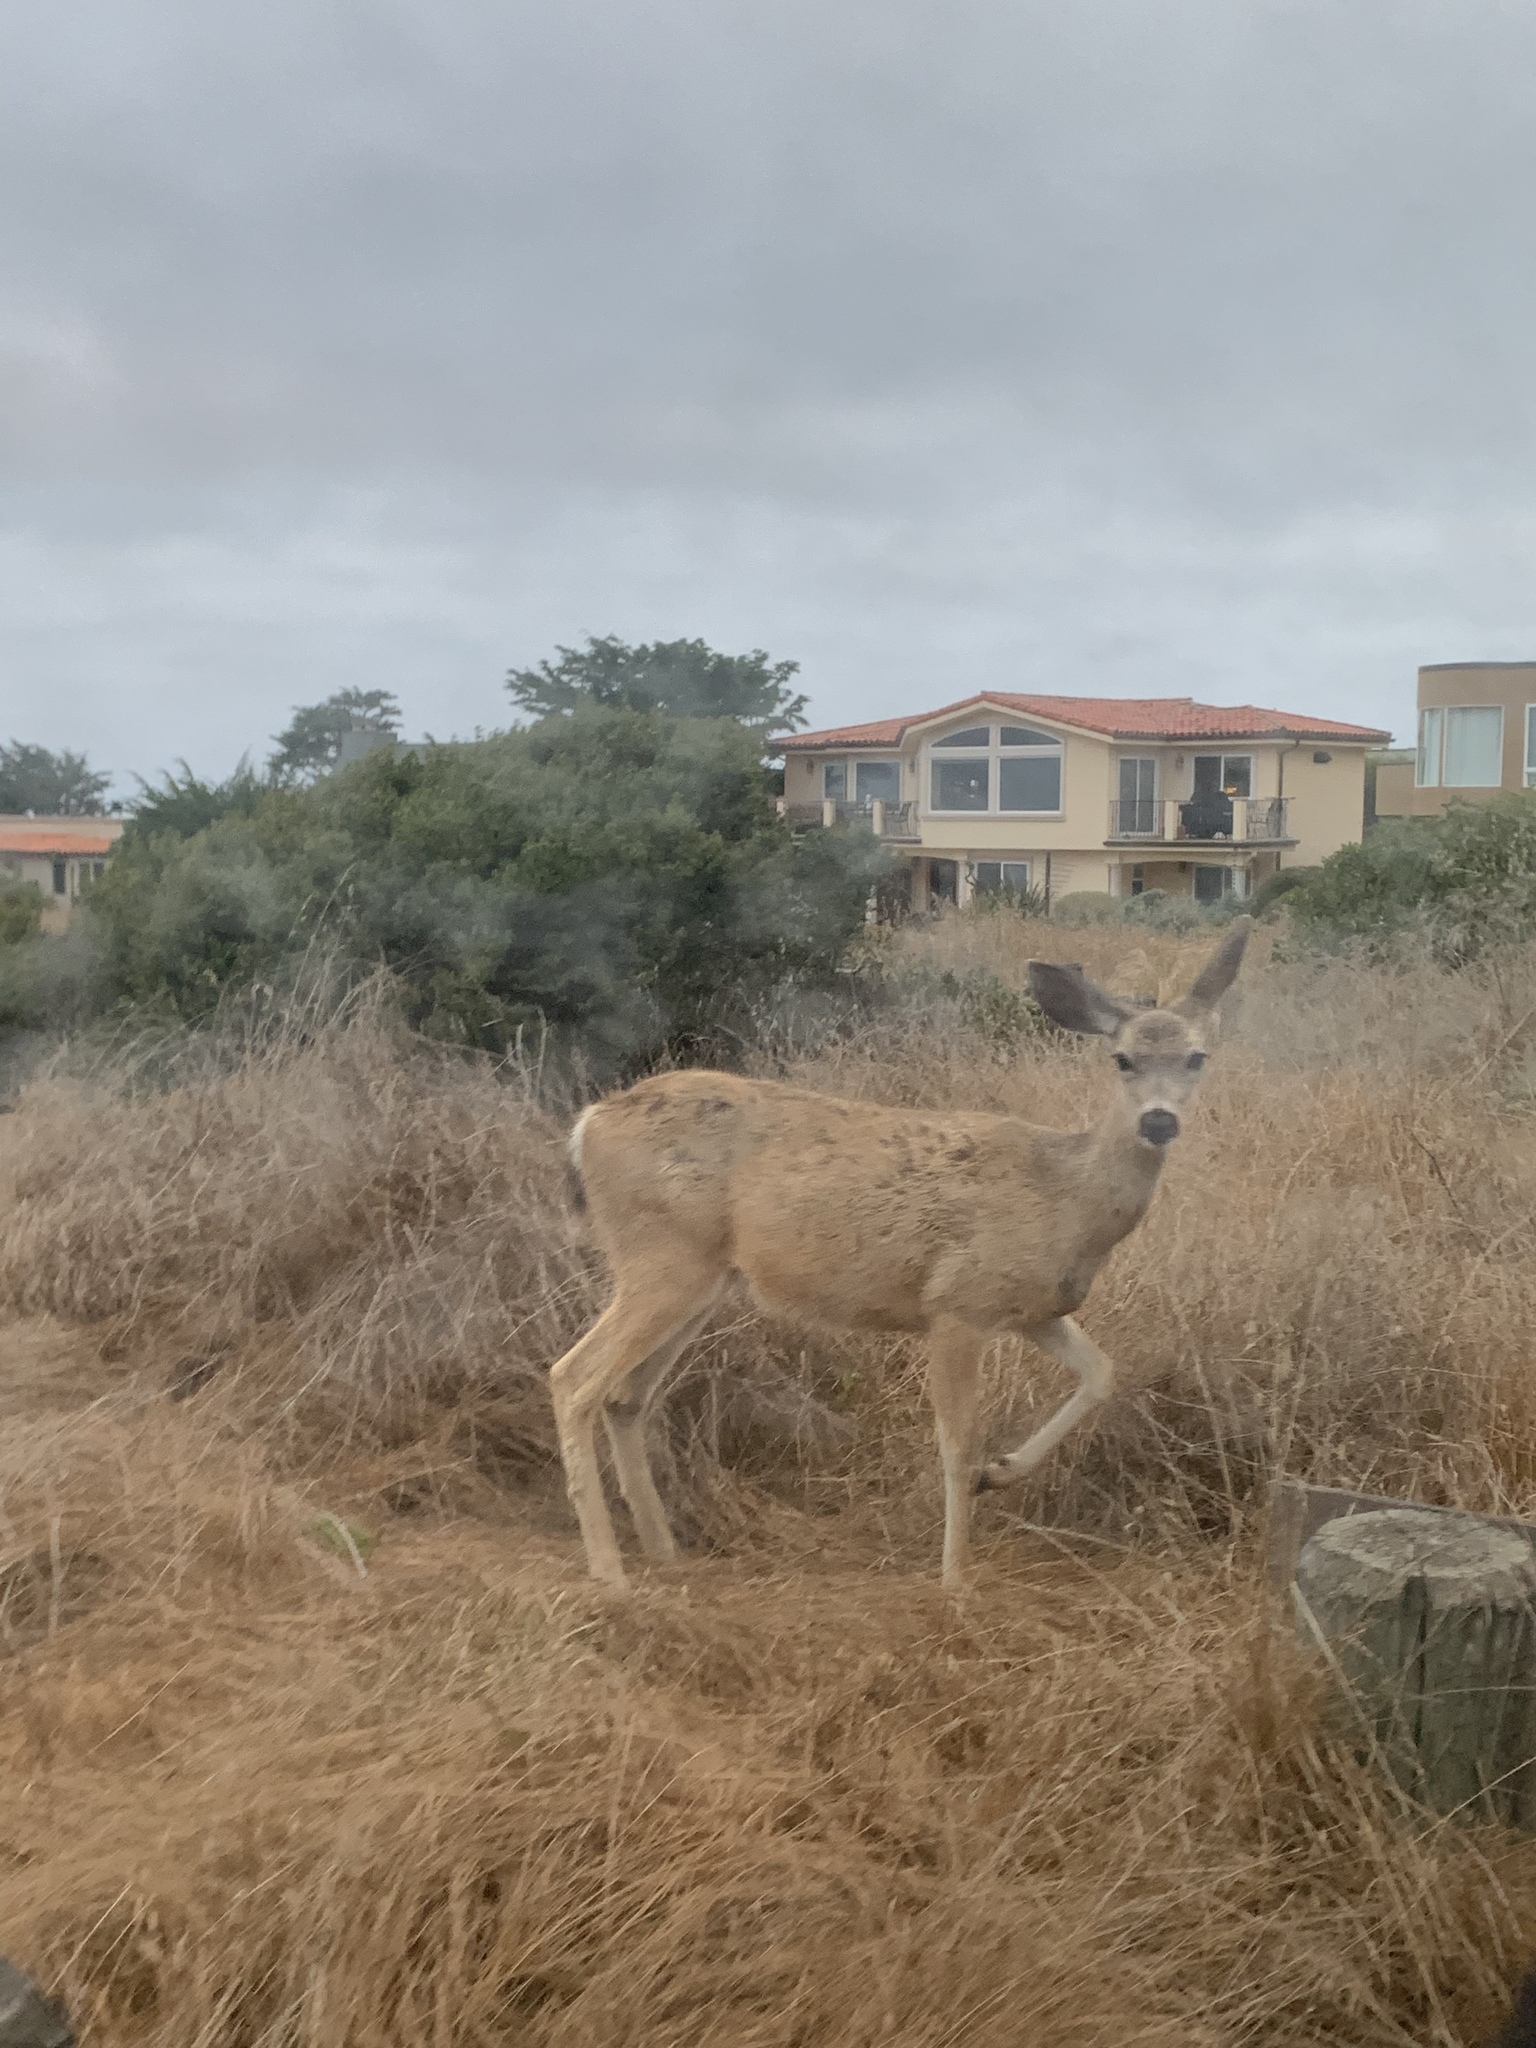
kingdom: Animalia
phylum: Chordata
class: Mammalia
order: Artiodactyla
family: Cervidae
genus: Odocoileus
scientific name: Odocoileus hemionus
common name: Mule deer
